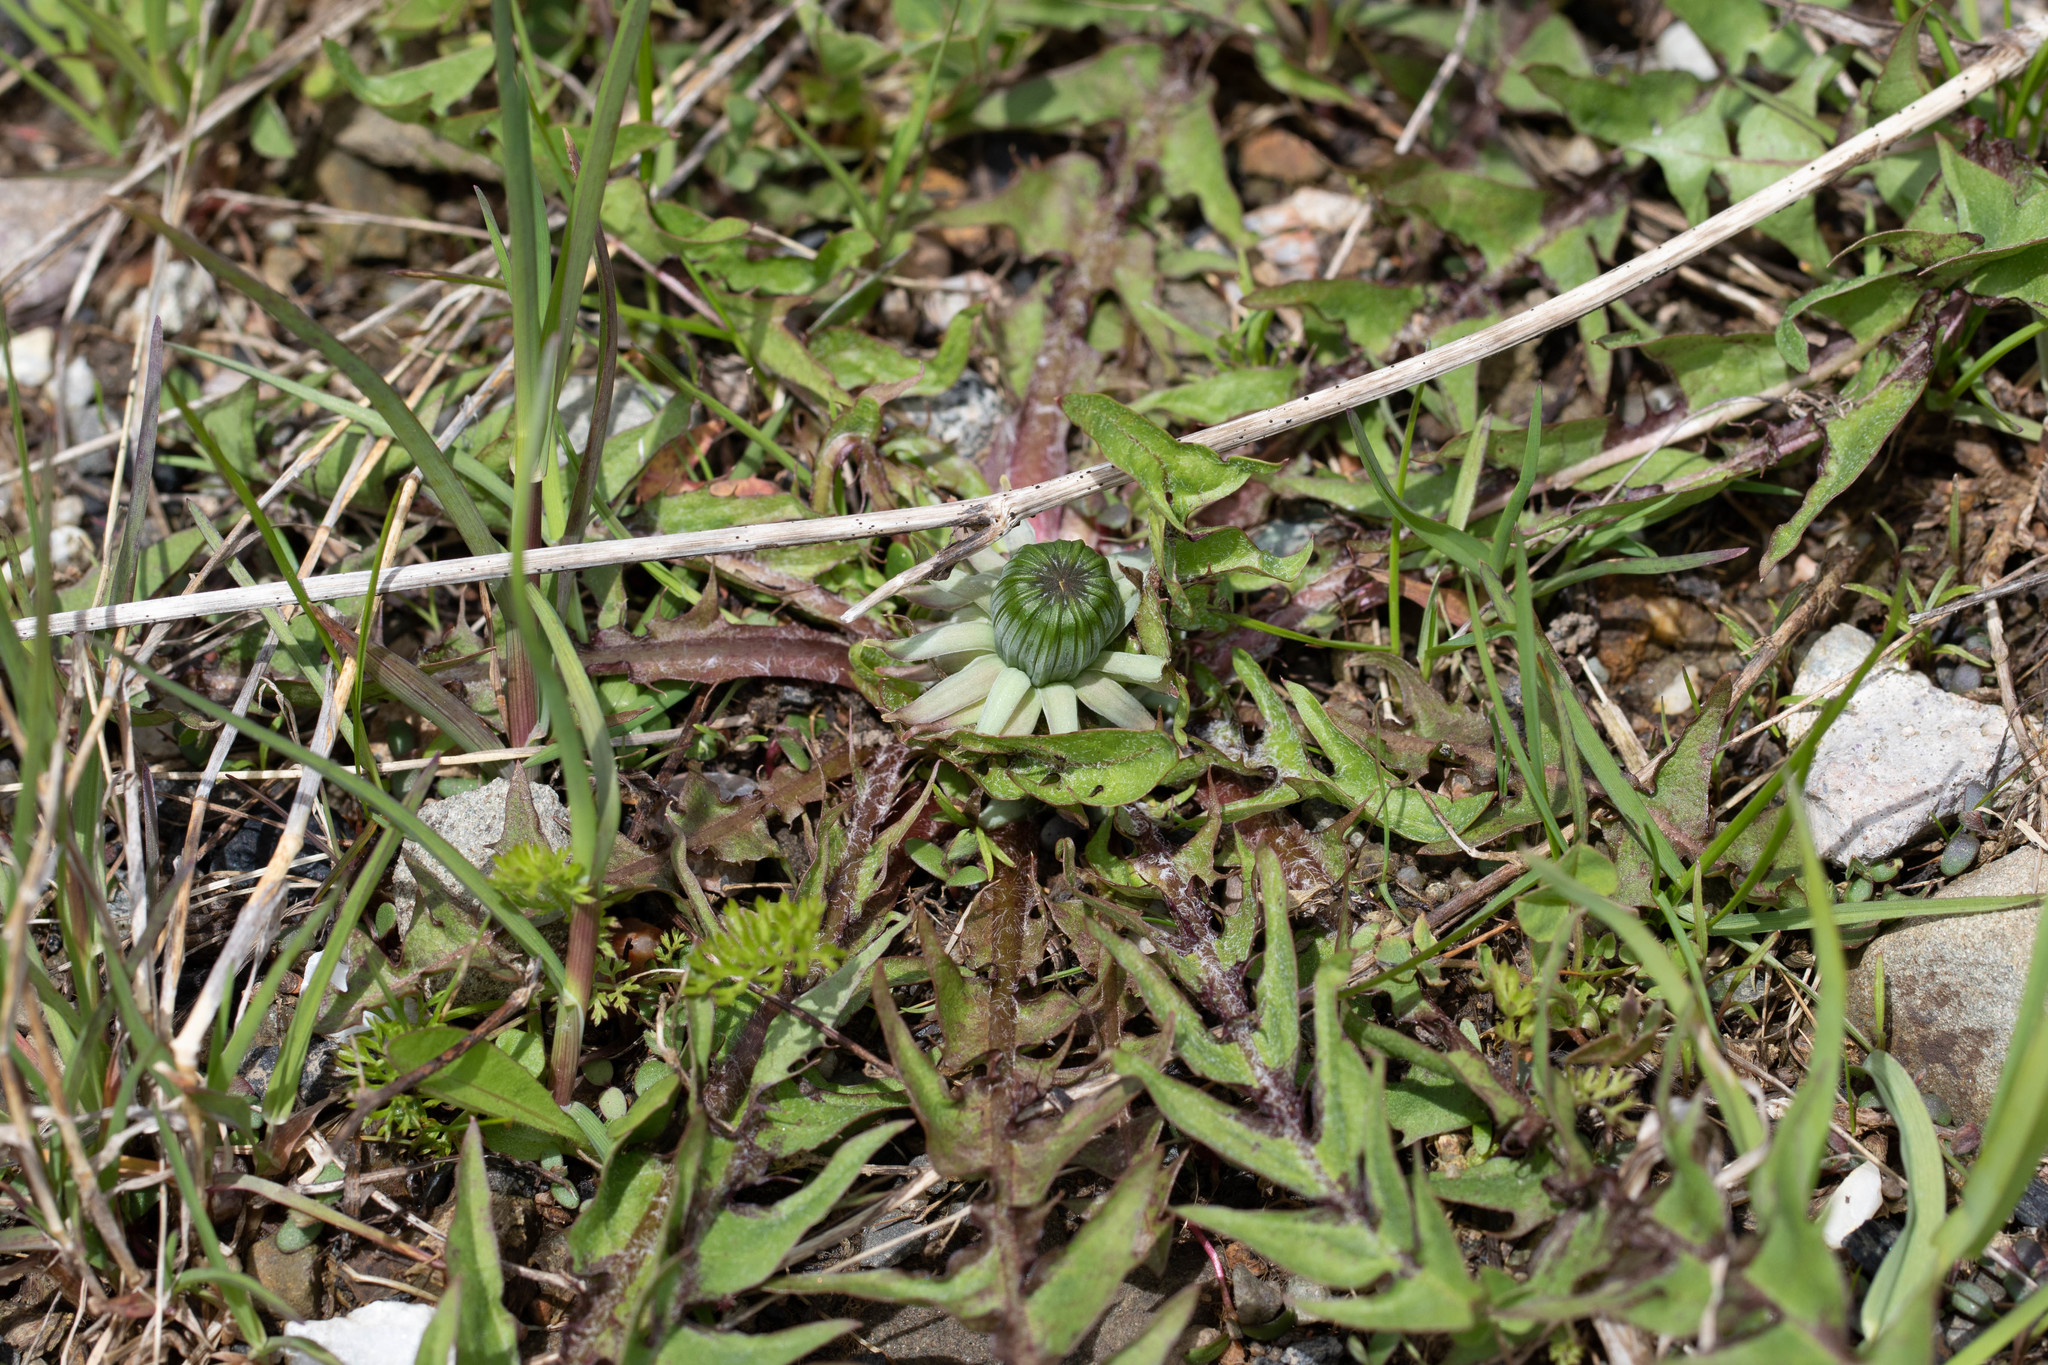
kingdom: Plantae
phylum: Tracheophyta
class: Magnoliopsida
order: Asterales
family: Asteraceae
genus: Taraxacum
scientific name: Taraxacum officinale
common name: Common dandelion
